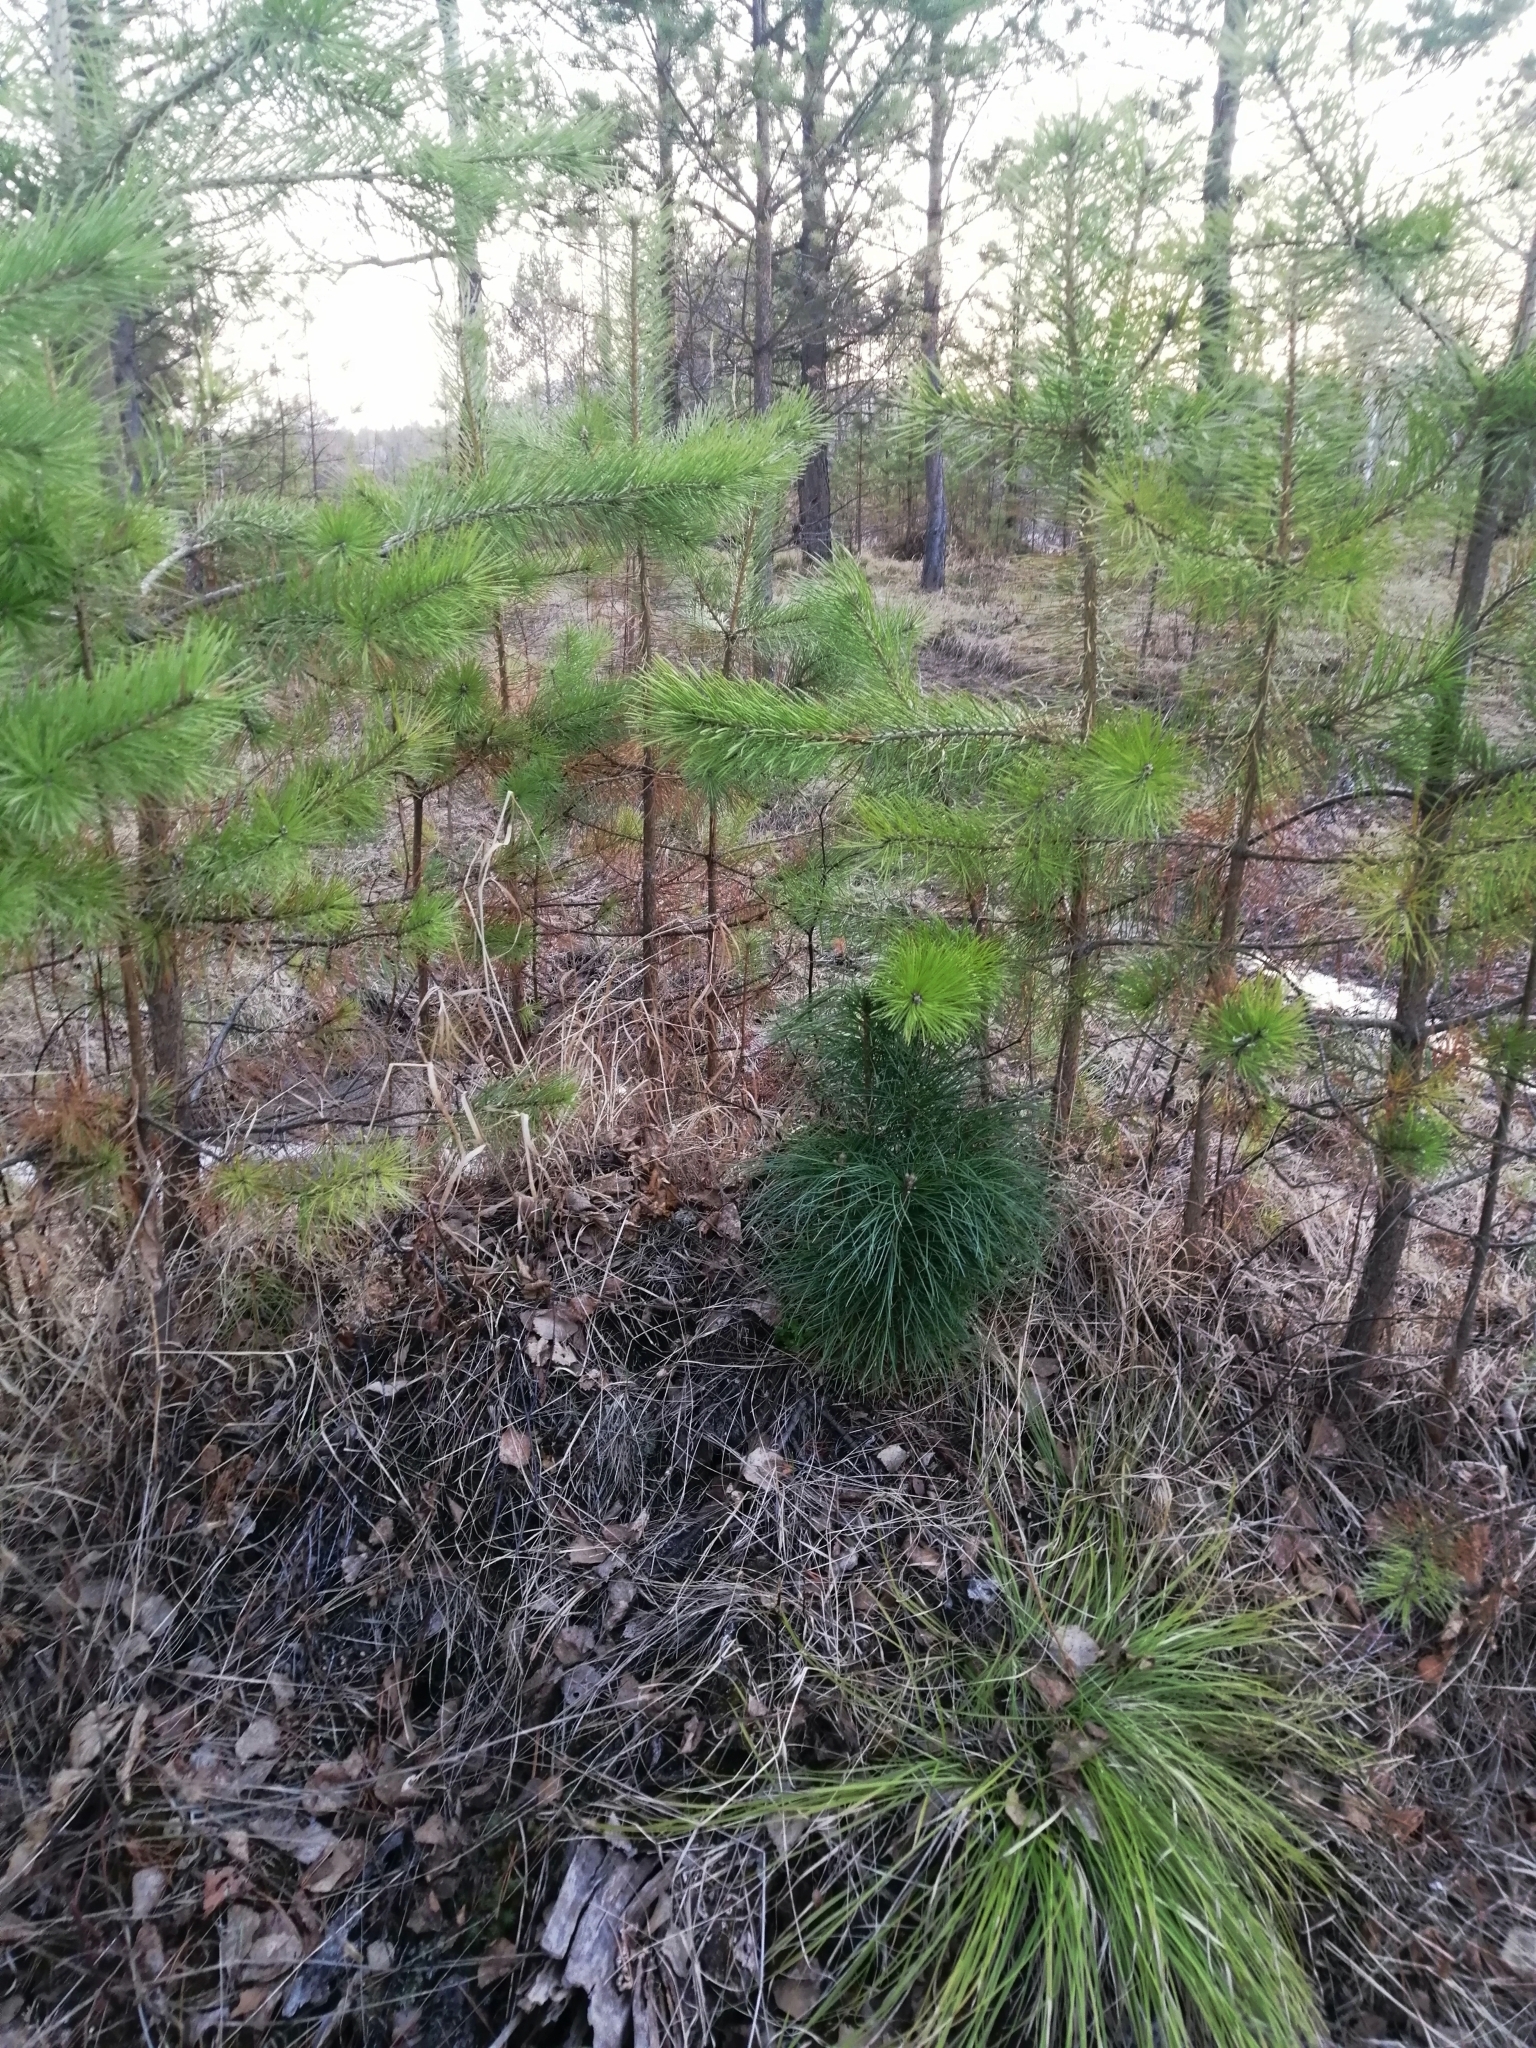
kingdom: Plantae
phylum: Tracheophyta
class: Pinopsida
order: Pinales
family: Pinaceae
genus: Pinus
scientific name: Pinus sibirica
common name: Siberian pine
